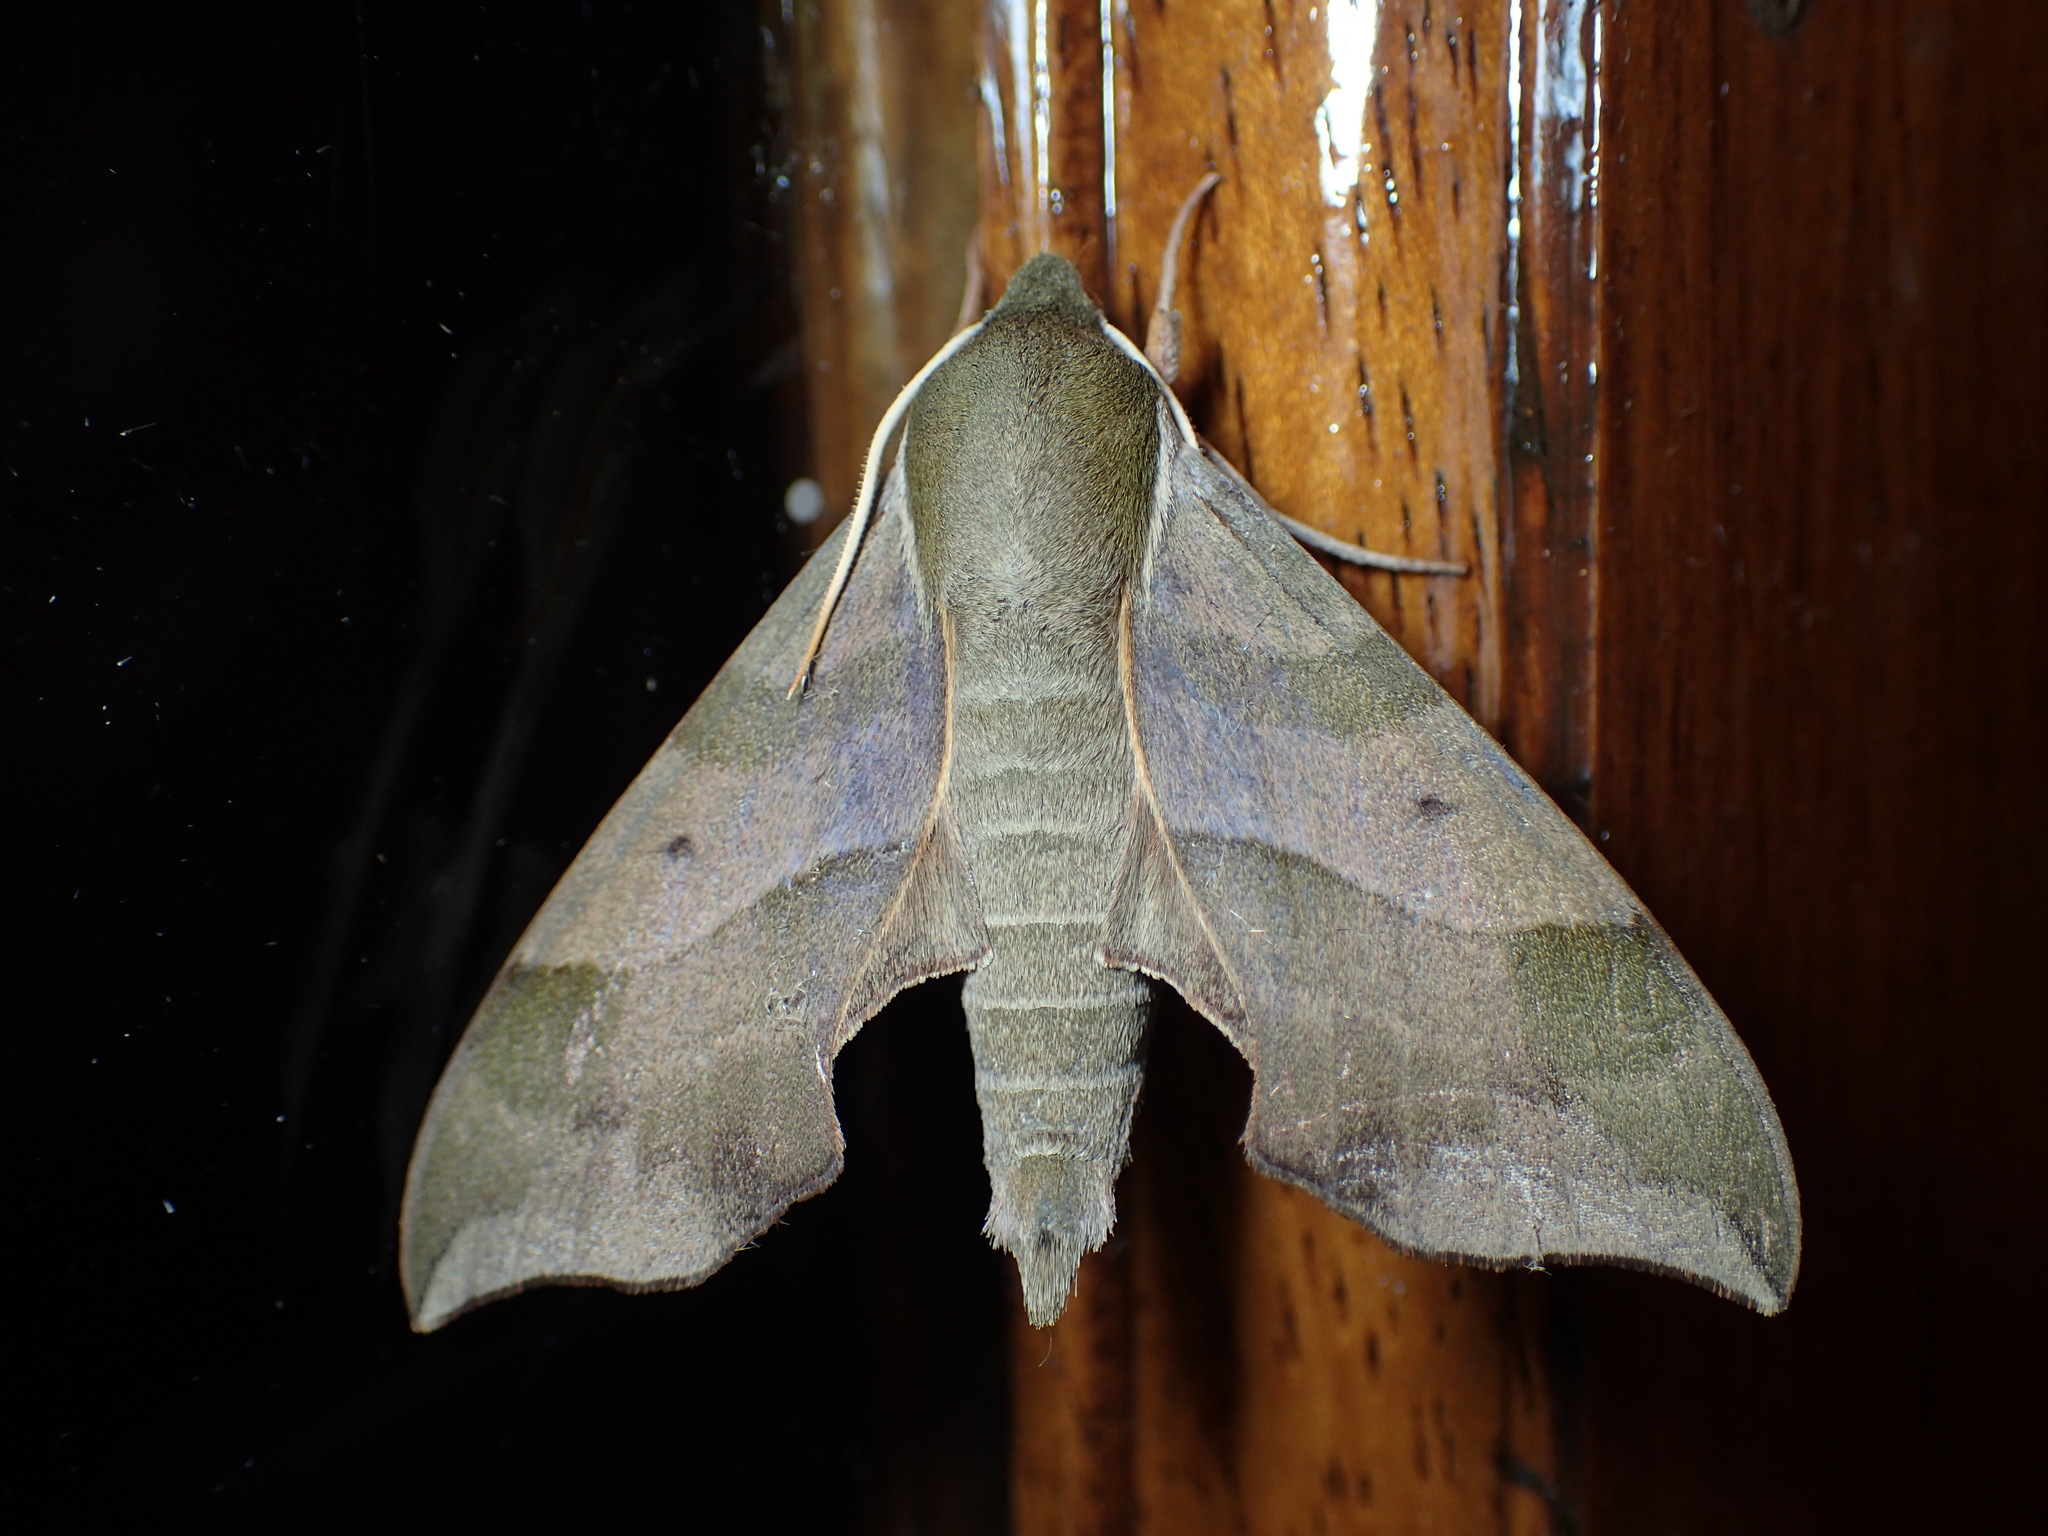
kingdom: Animalia
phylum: Arthropoda
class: Insecta
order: Lepidoptera
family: Sphingidae
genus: Darapsa
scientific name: Darapsa myron
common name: Hog sphinx
